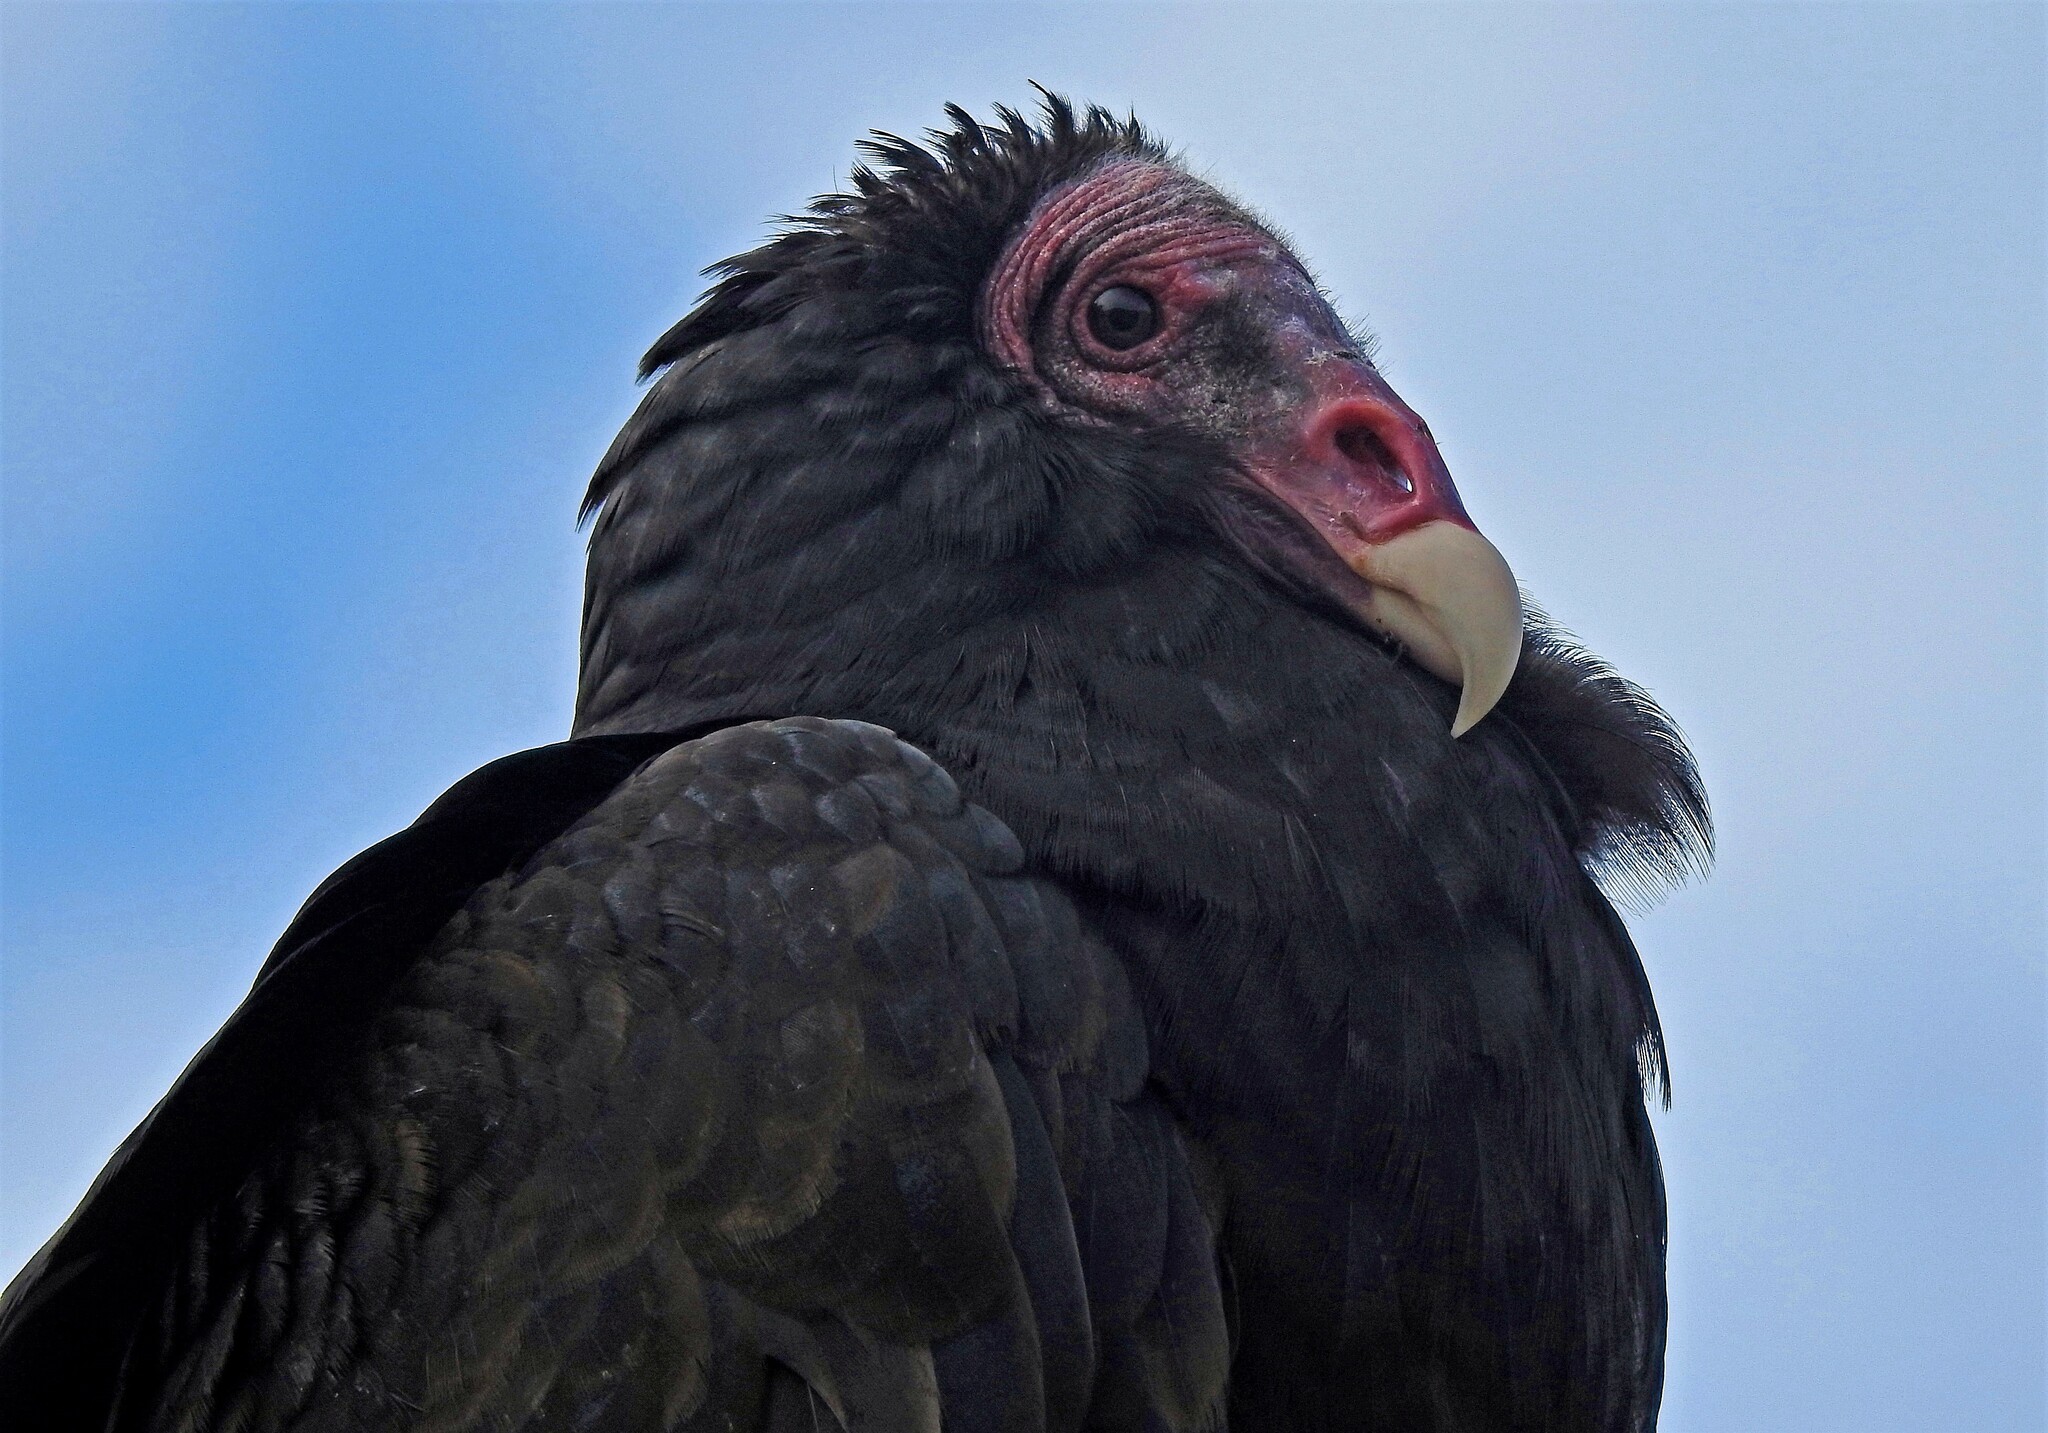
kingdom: Animalia
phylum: Chordata
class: Aves
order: Accipitriformes
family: Cathartidae
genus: Cathartes
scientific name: Cathartes aura
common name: Turkey vulture
